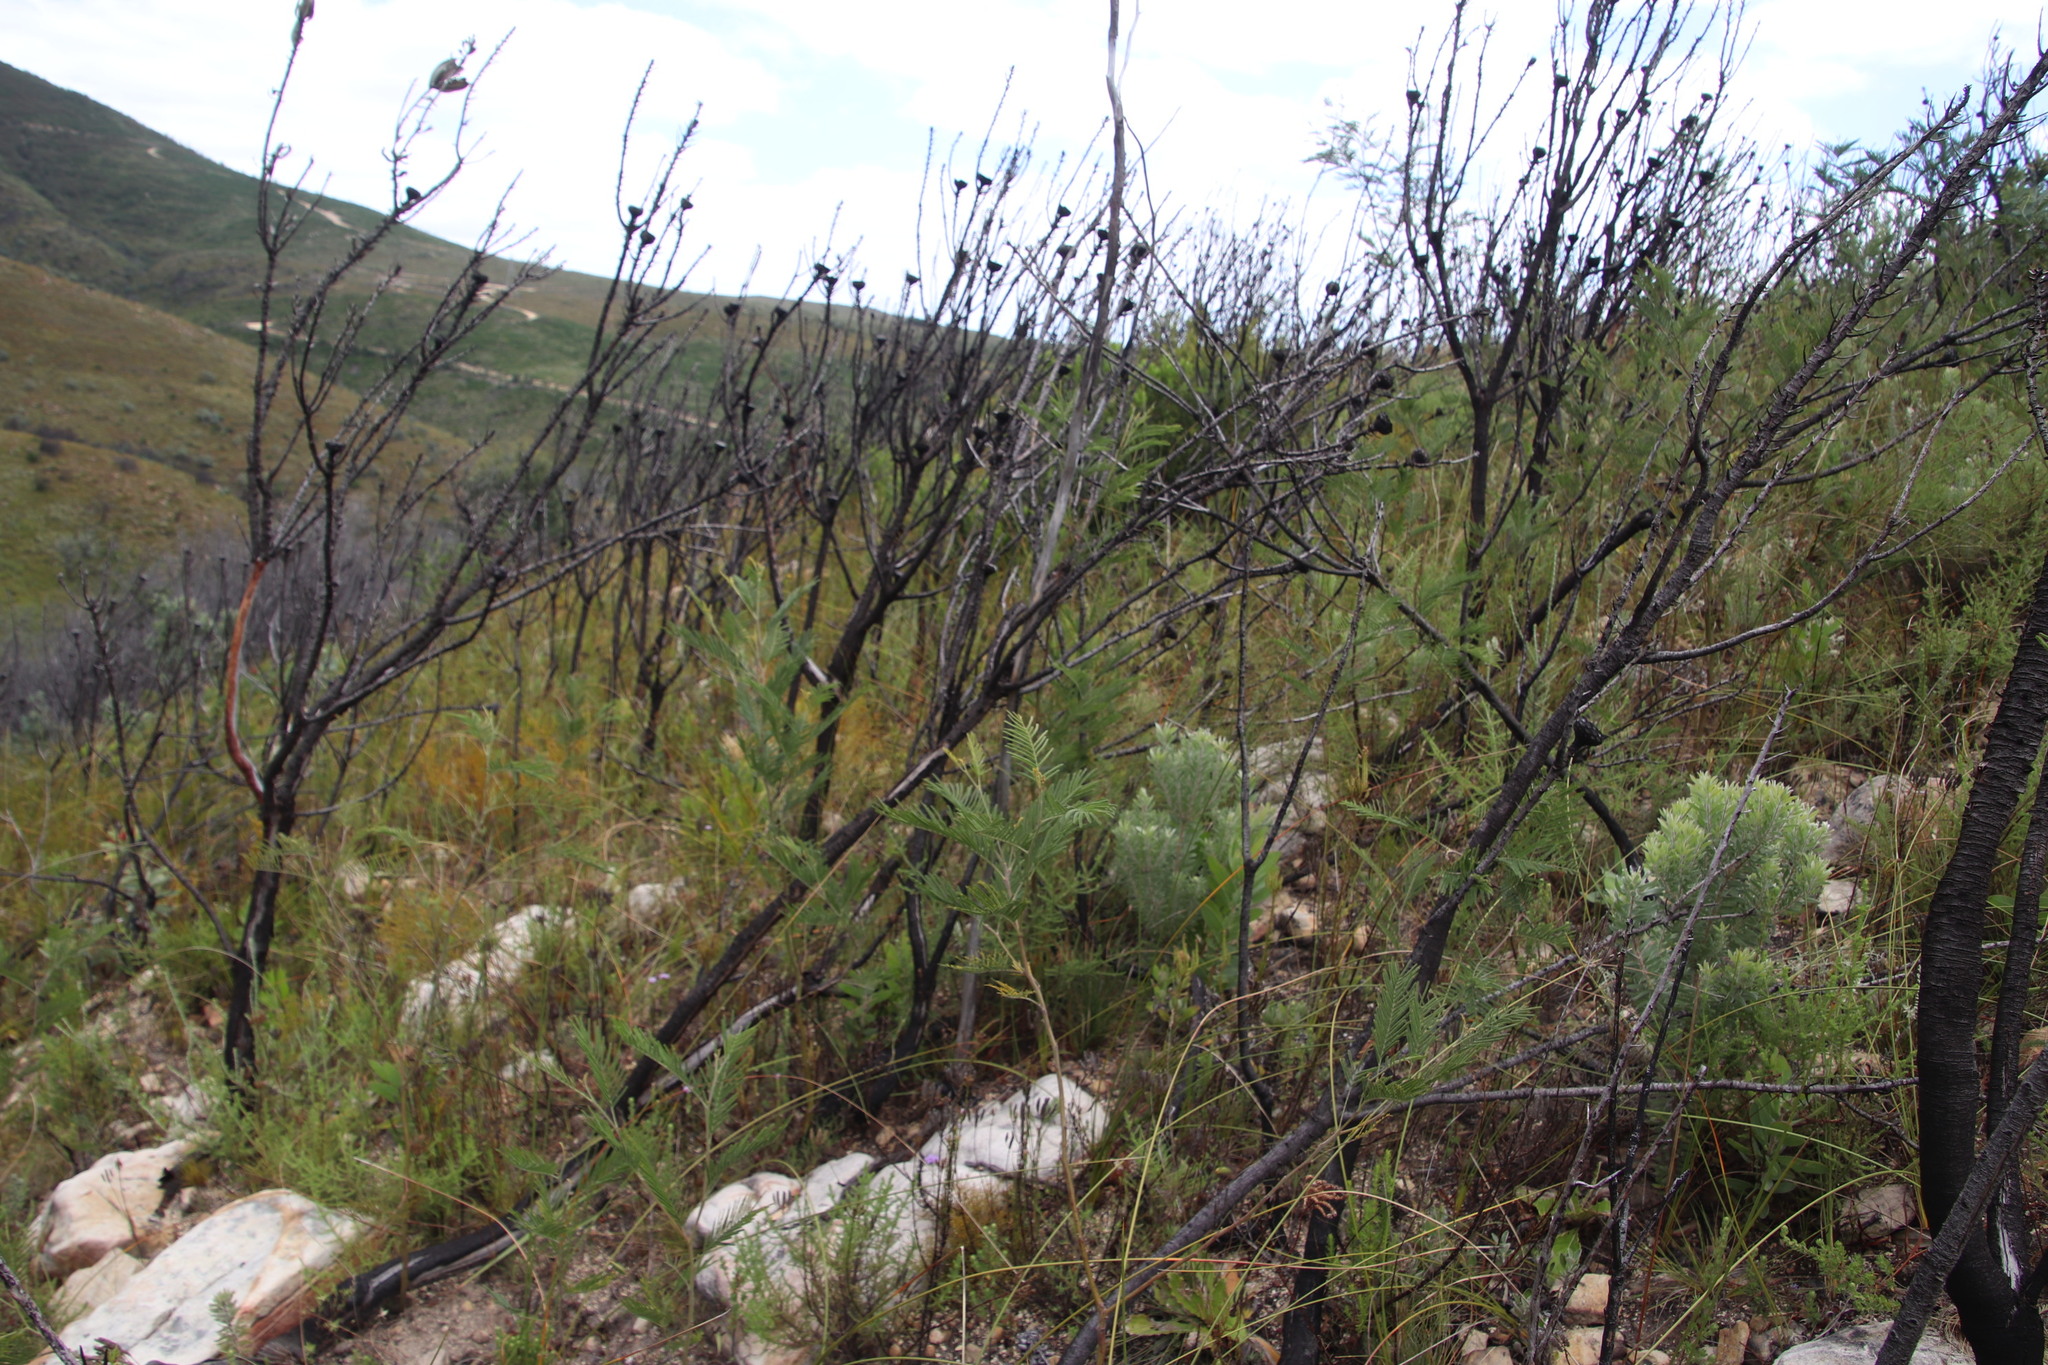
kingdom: Plantae
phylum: Tracheophyta
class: Magnoliopsida
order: Fabales
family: Fabaceae
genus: Acacia
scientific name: Acacia mearnsii
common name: Black wattle
